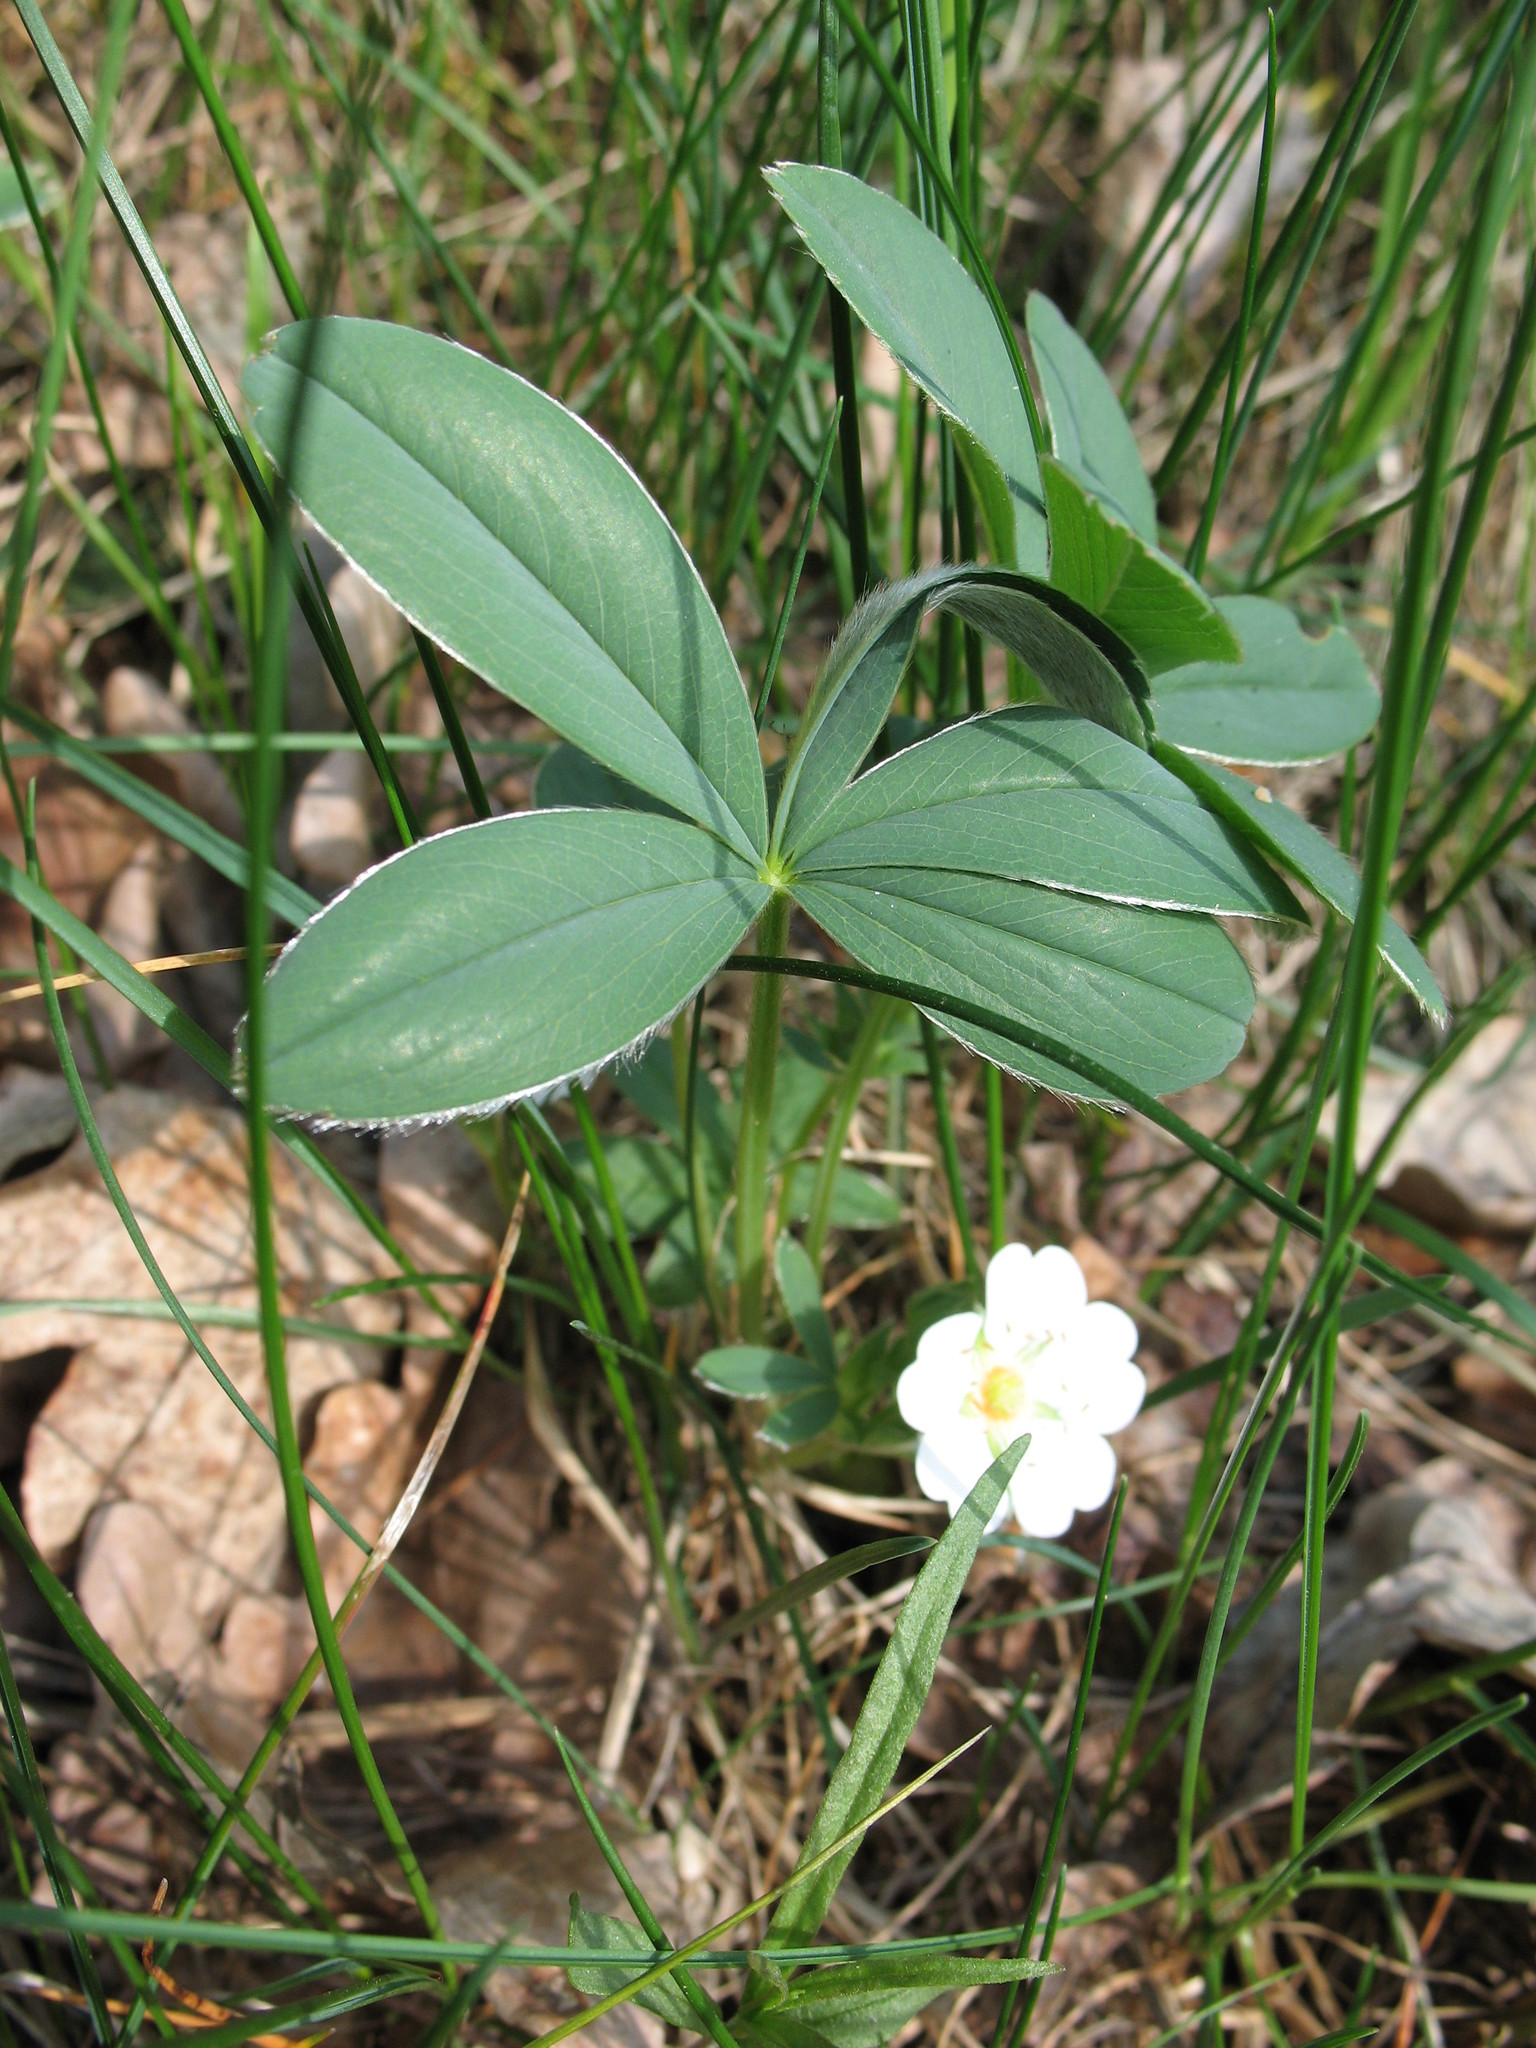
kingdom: Plantae
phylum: Tracheophyta
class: Magnoliopsida
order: Rosales
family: Rosaceae
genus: Potentilla
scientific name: Potentilla alba
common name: White cinquefoil
